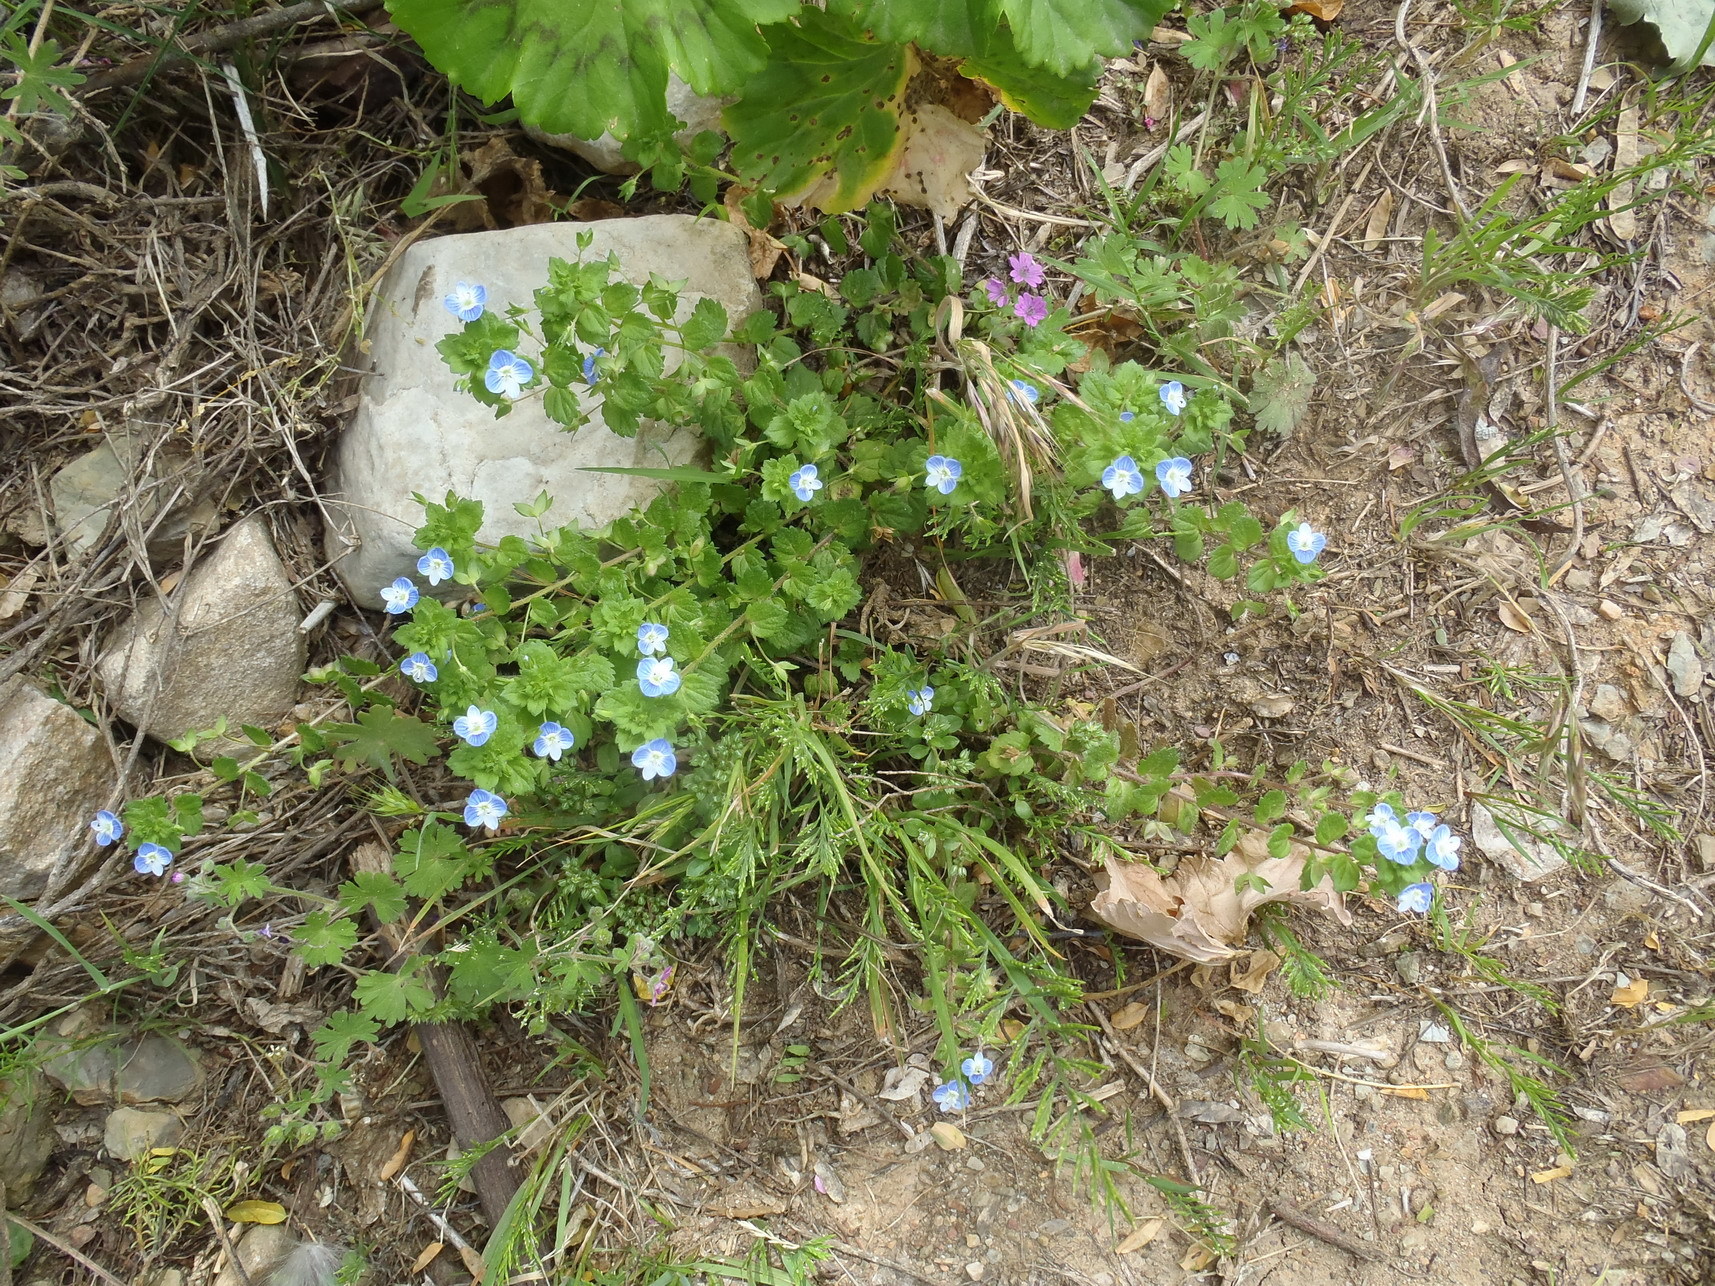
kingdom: Plantae
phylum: Tracheophyta
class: Magnoliopsida
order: Lamiales
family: Plantaginaceae
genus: Veronica
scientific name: Veronica persica
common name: Common field-speedwell
